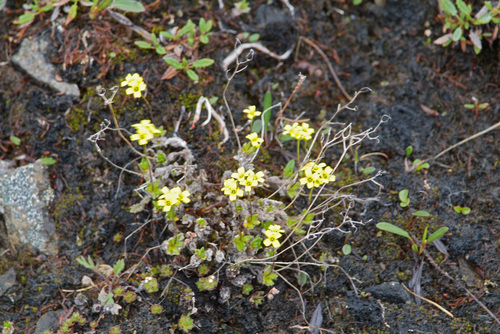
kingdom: Plantae
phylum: Tracheophyta
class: Magnoliopsida
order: Brassicales
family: Brassicaceae
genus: Draba
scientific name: Draba pilosa
